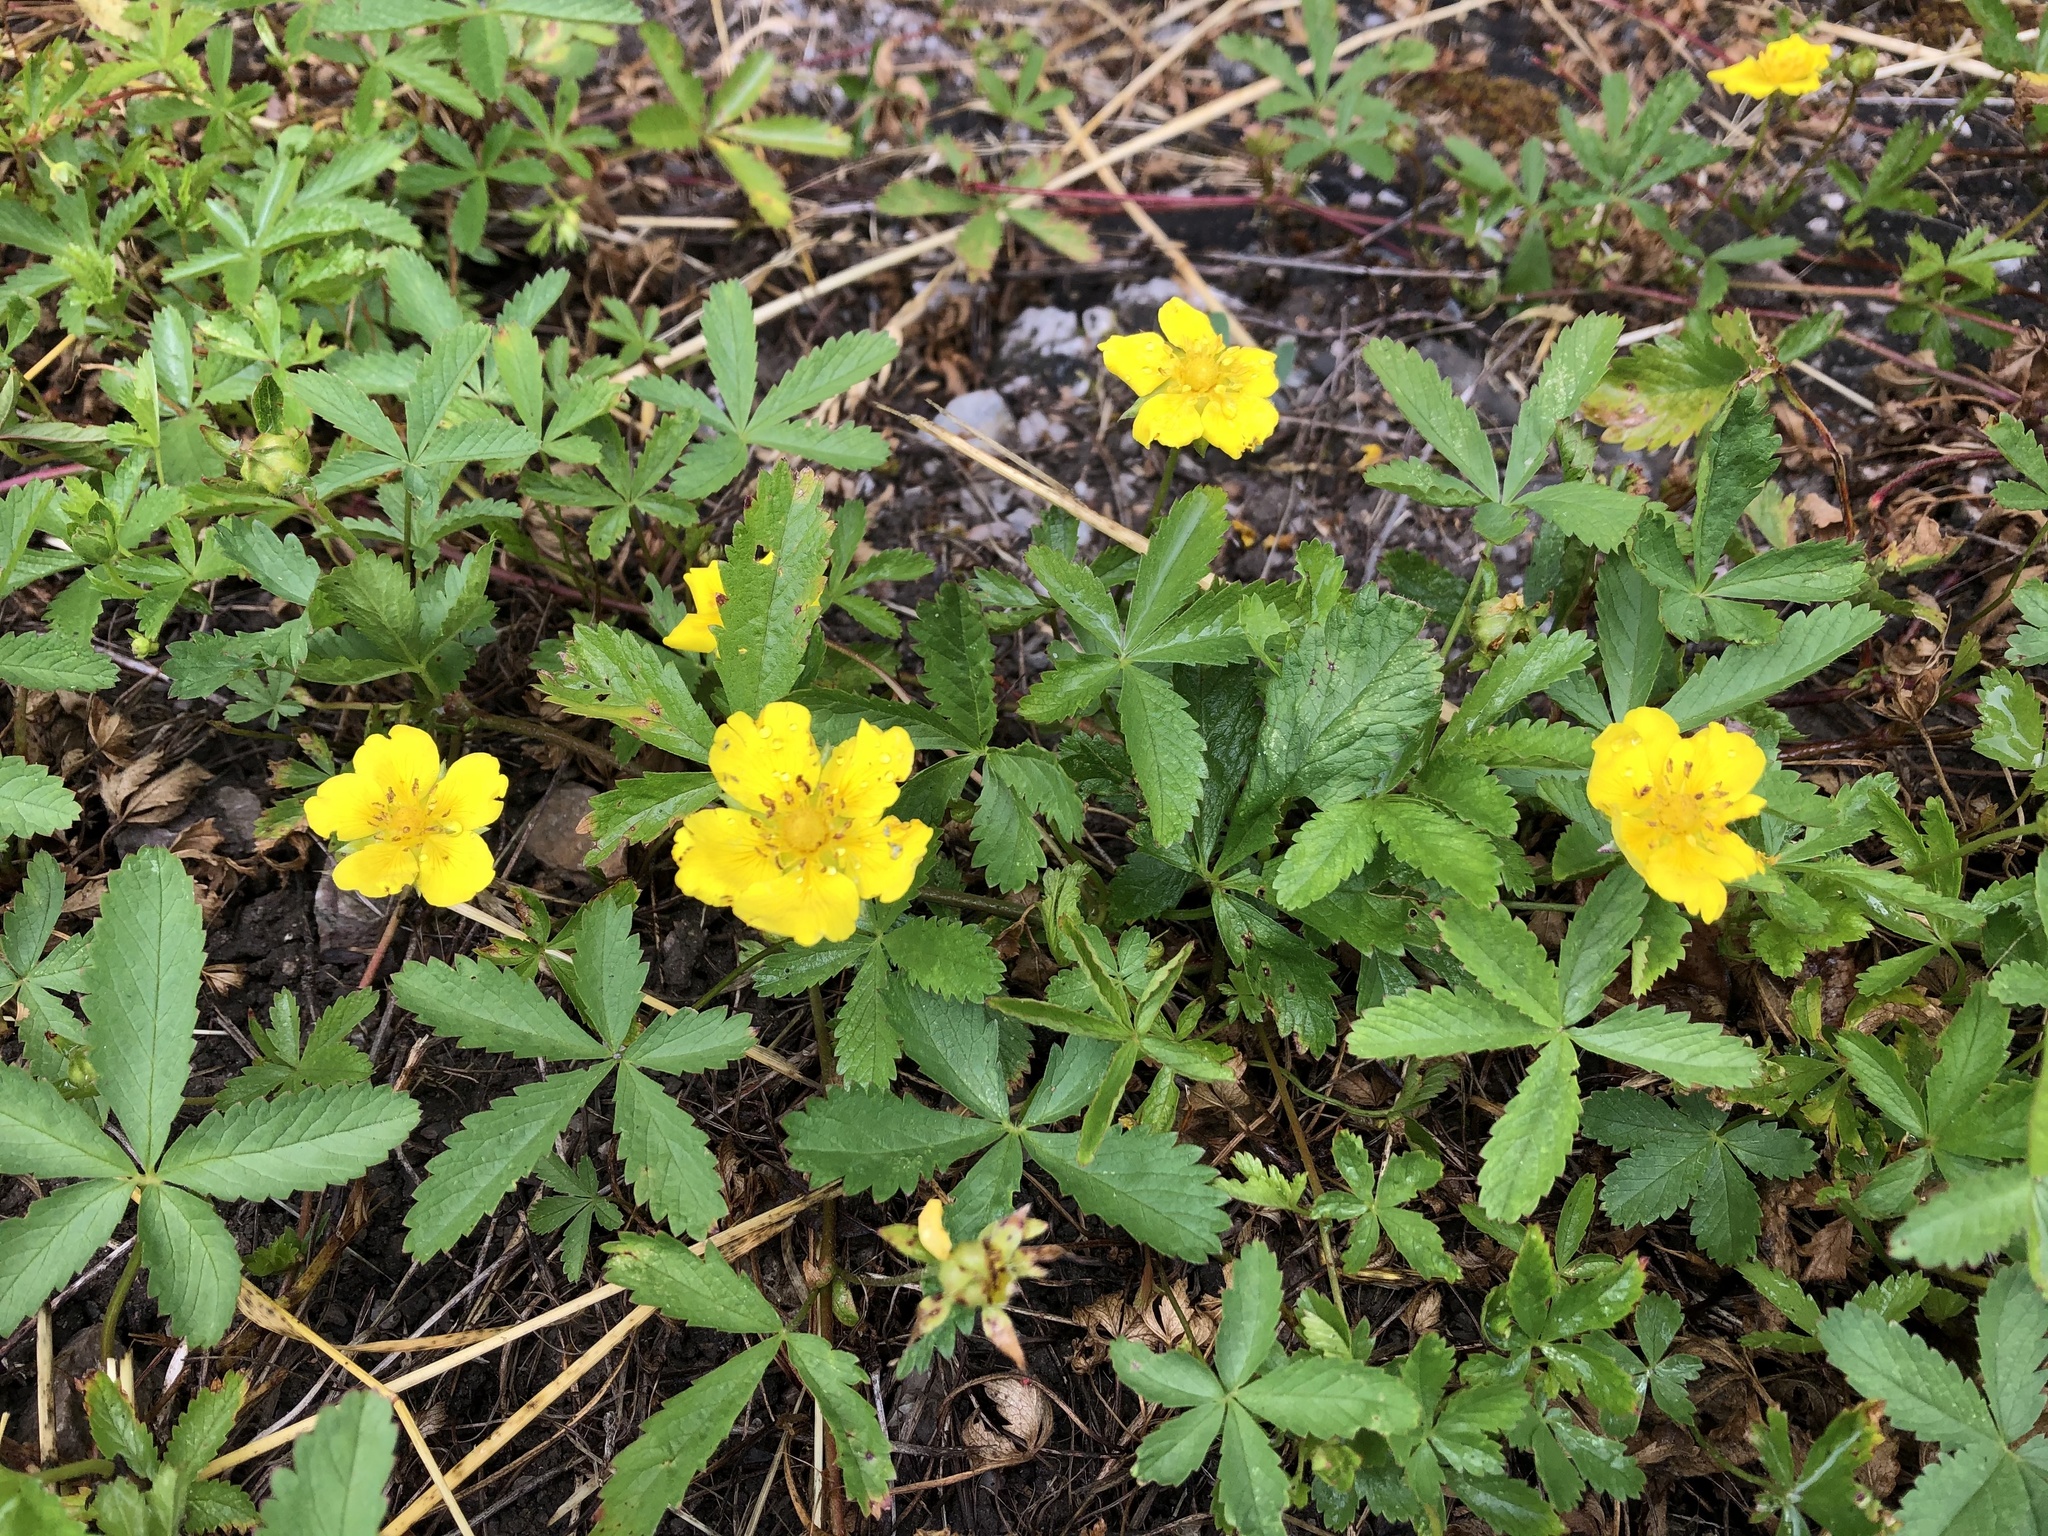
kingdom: Plantae
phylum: Tracheophyta
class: Magnoliopsida
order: Rosales
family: Rosaceae
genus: Potentilla
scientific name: Potentilla reptans
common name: Creeping cinquefoil
